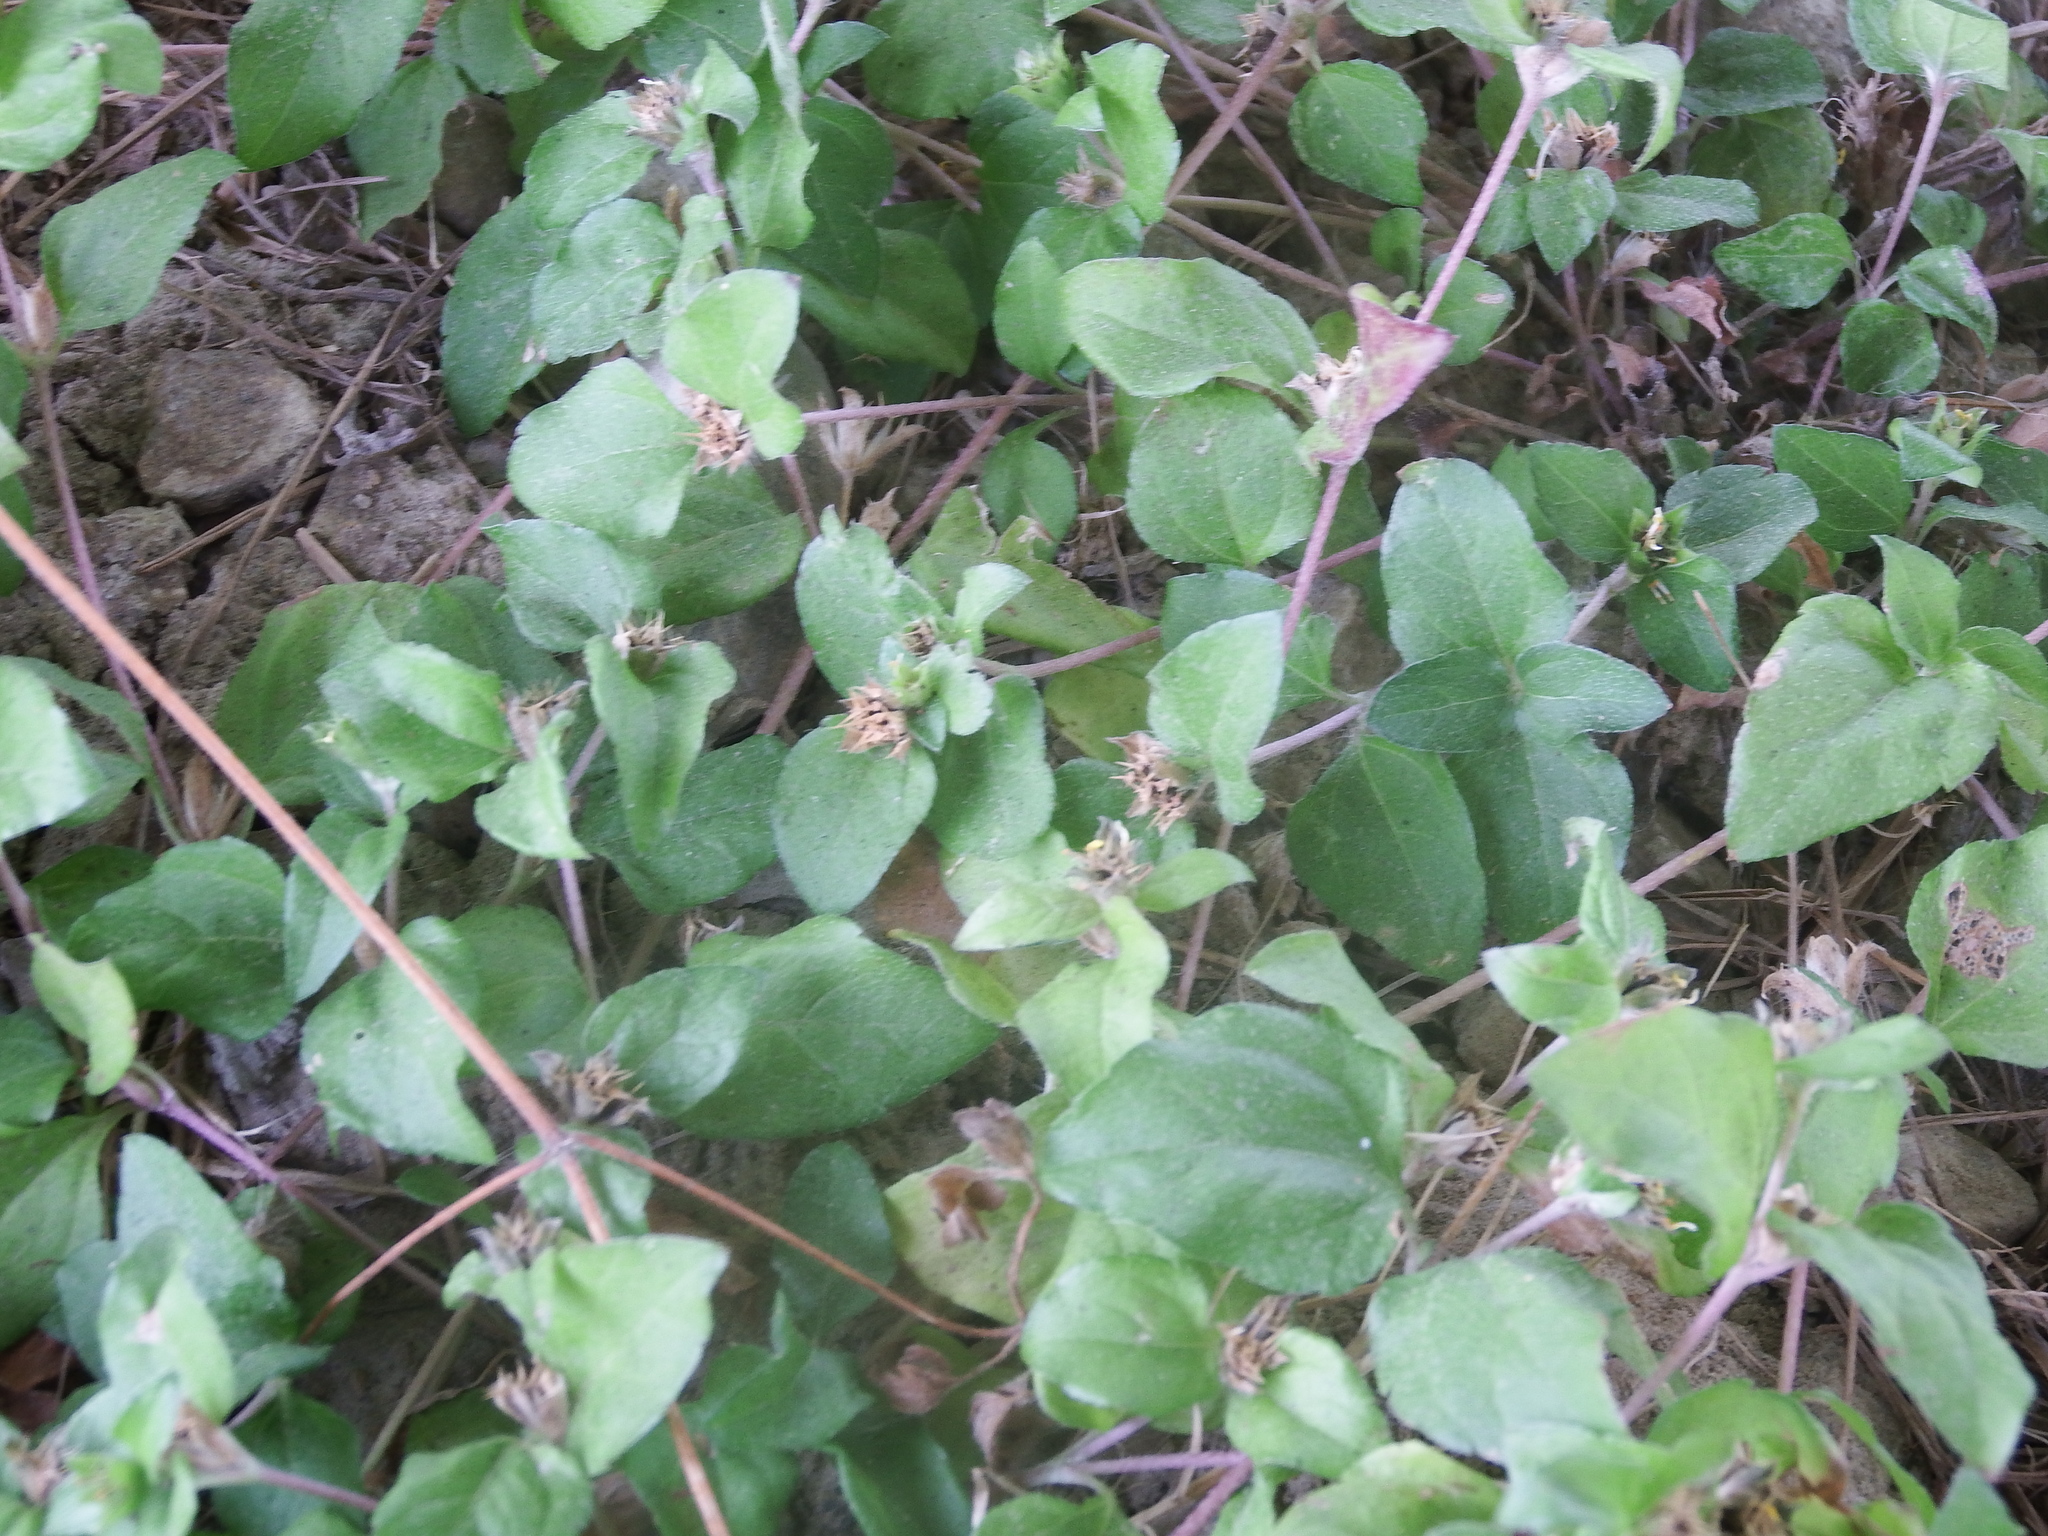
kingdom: Plantae
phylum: Tracheophyta
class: Magnoliopsida
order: Asterales
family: Asteraceae
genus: Calyptocarpus
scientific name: Calyptocarpus vialis
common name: Straggler daisy
